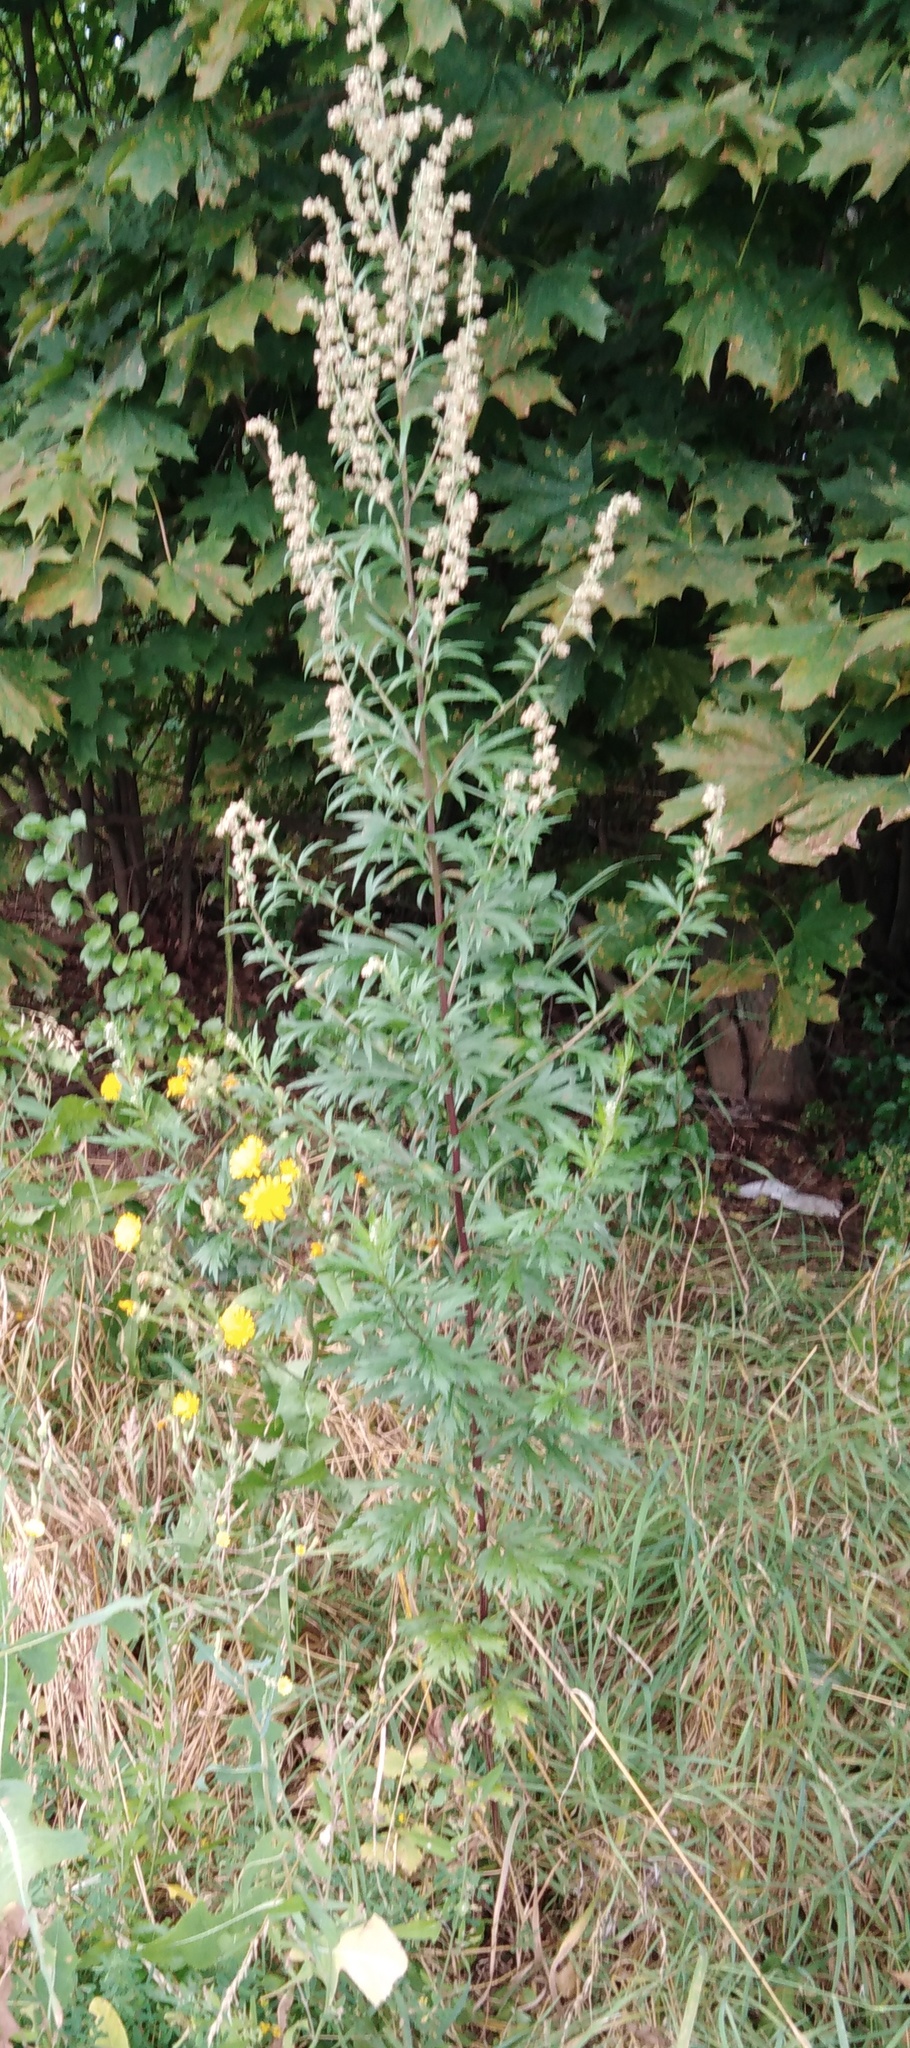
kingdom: Plantae
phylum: Tracheophyta
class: Magnoliopsida
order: Asterales
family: Asteraceae
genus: Artemisia
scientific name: Artemisia vulgaris
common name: Mugwort
